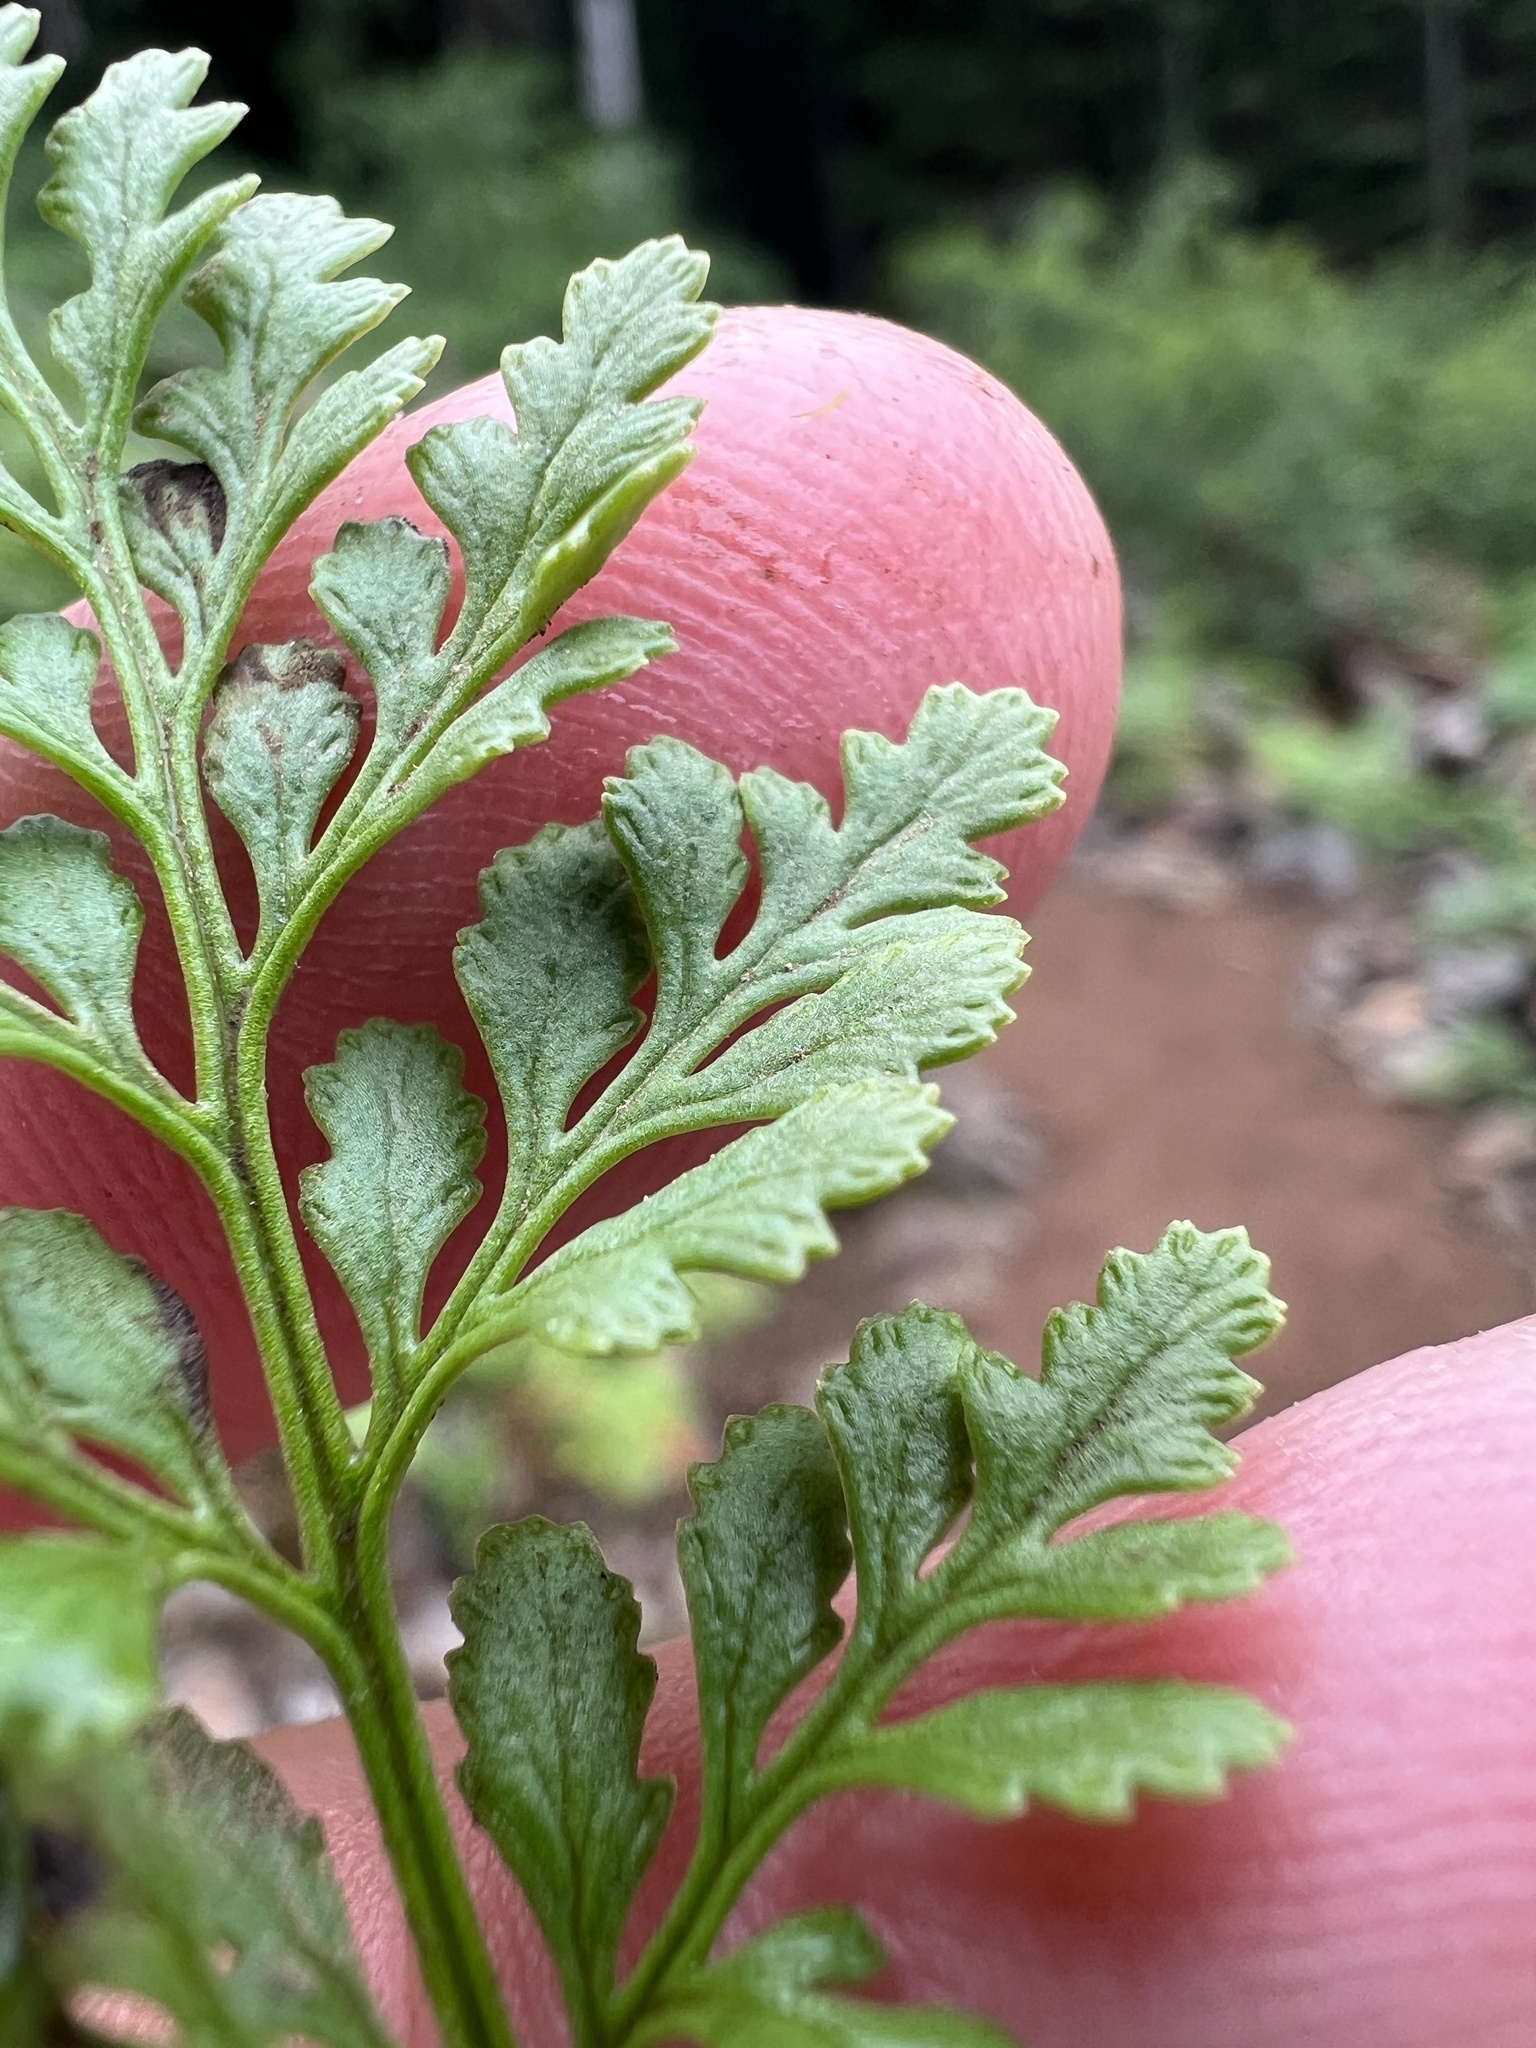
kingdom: Plantae
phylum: Tracheophyta
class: Polypodiopsida
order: Polypodiales
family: Pteridaceae
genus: Cryptogramma
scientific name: Cryptogramma acrostichoides
